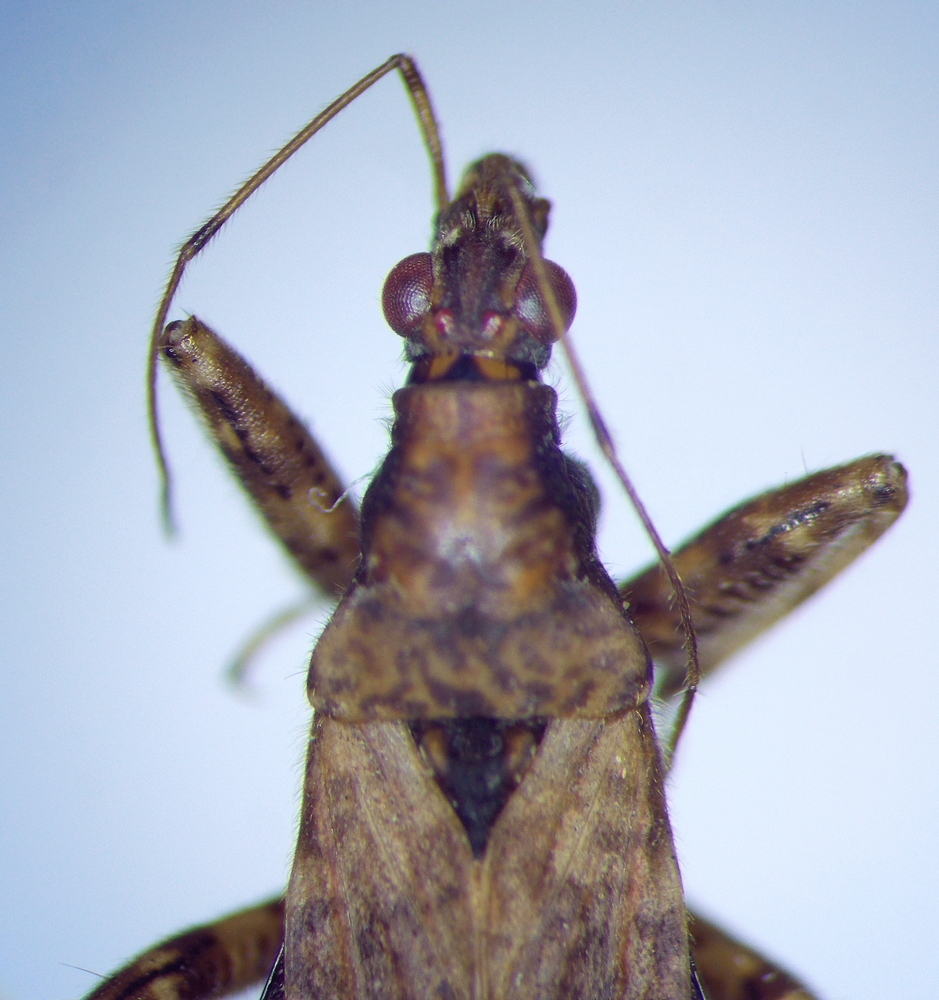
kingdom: Animalia
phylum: Arthropoda
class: Insecta
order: Hemiptera
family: Nabidae
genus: Himacerus
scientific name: Himacerus mirmicoides
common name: Ant damsel bug
